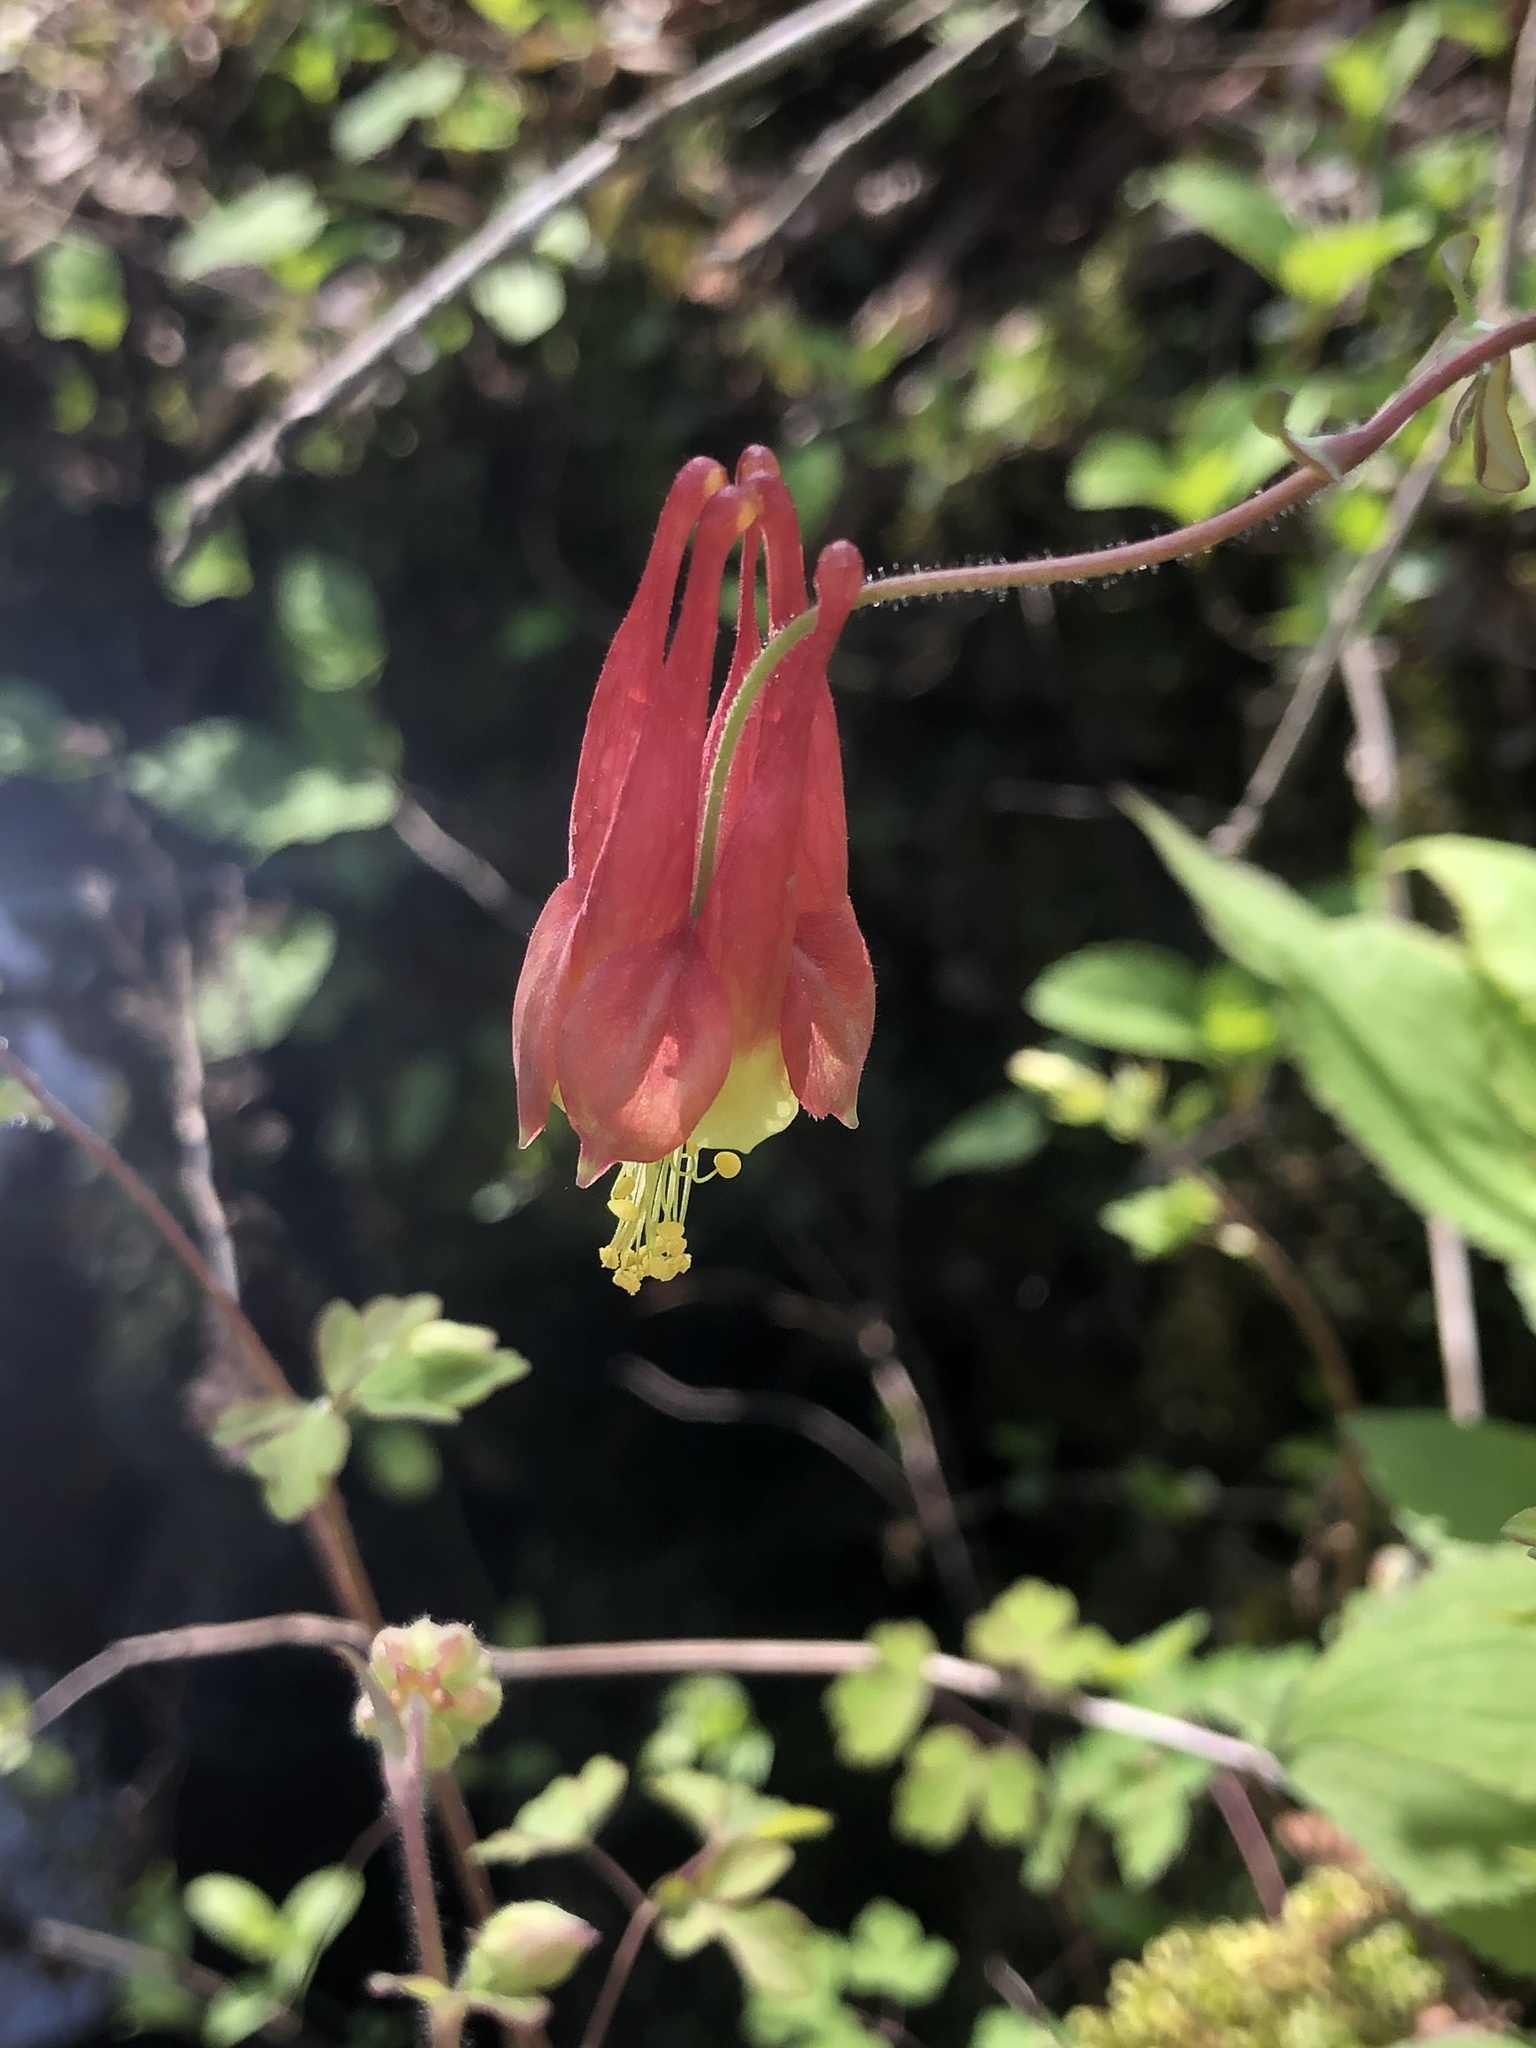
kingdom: Plantae
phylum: Tracheophyta
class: Magnoliopsida
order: Ranunculales
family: Ranunculaceae
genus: Aquilegia
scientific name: Aquilegia canadensis
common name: American columbine
